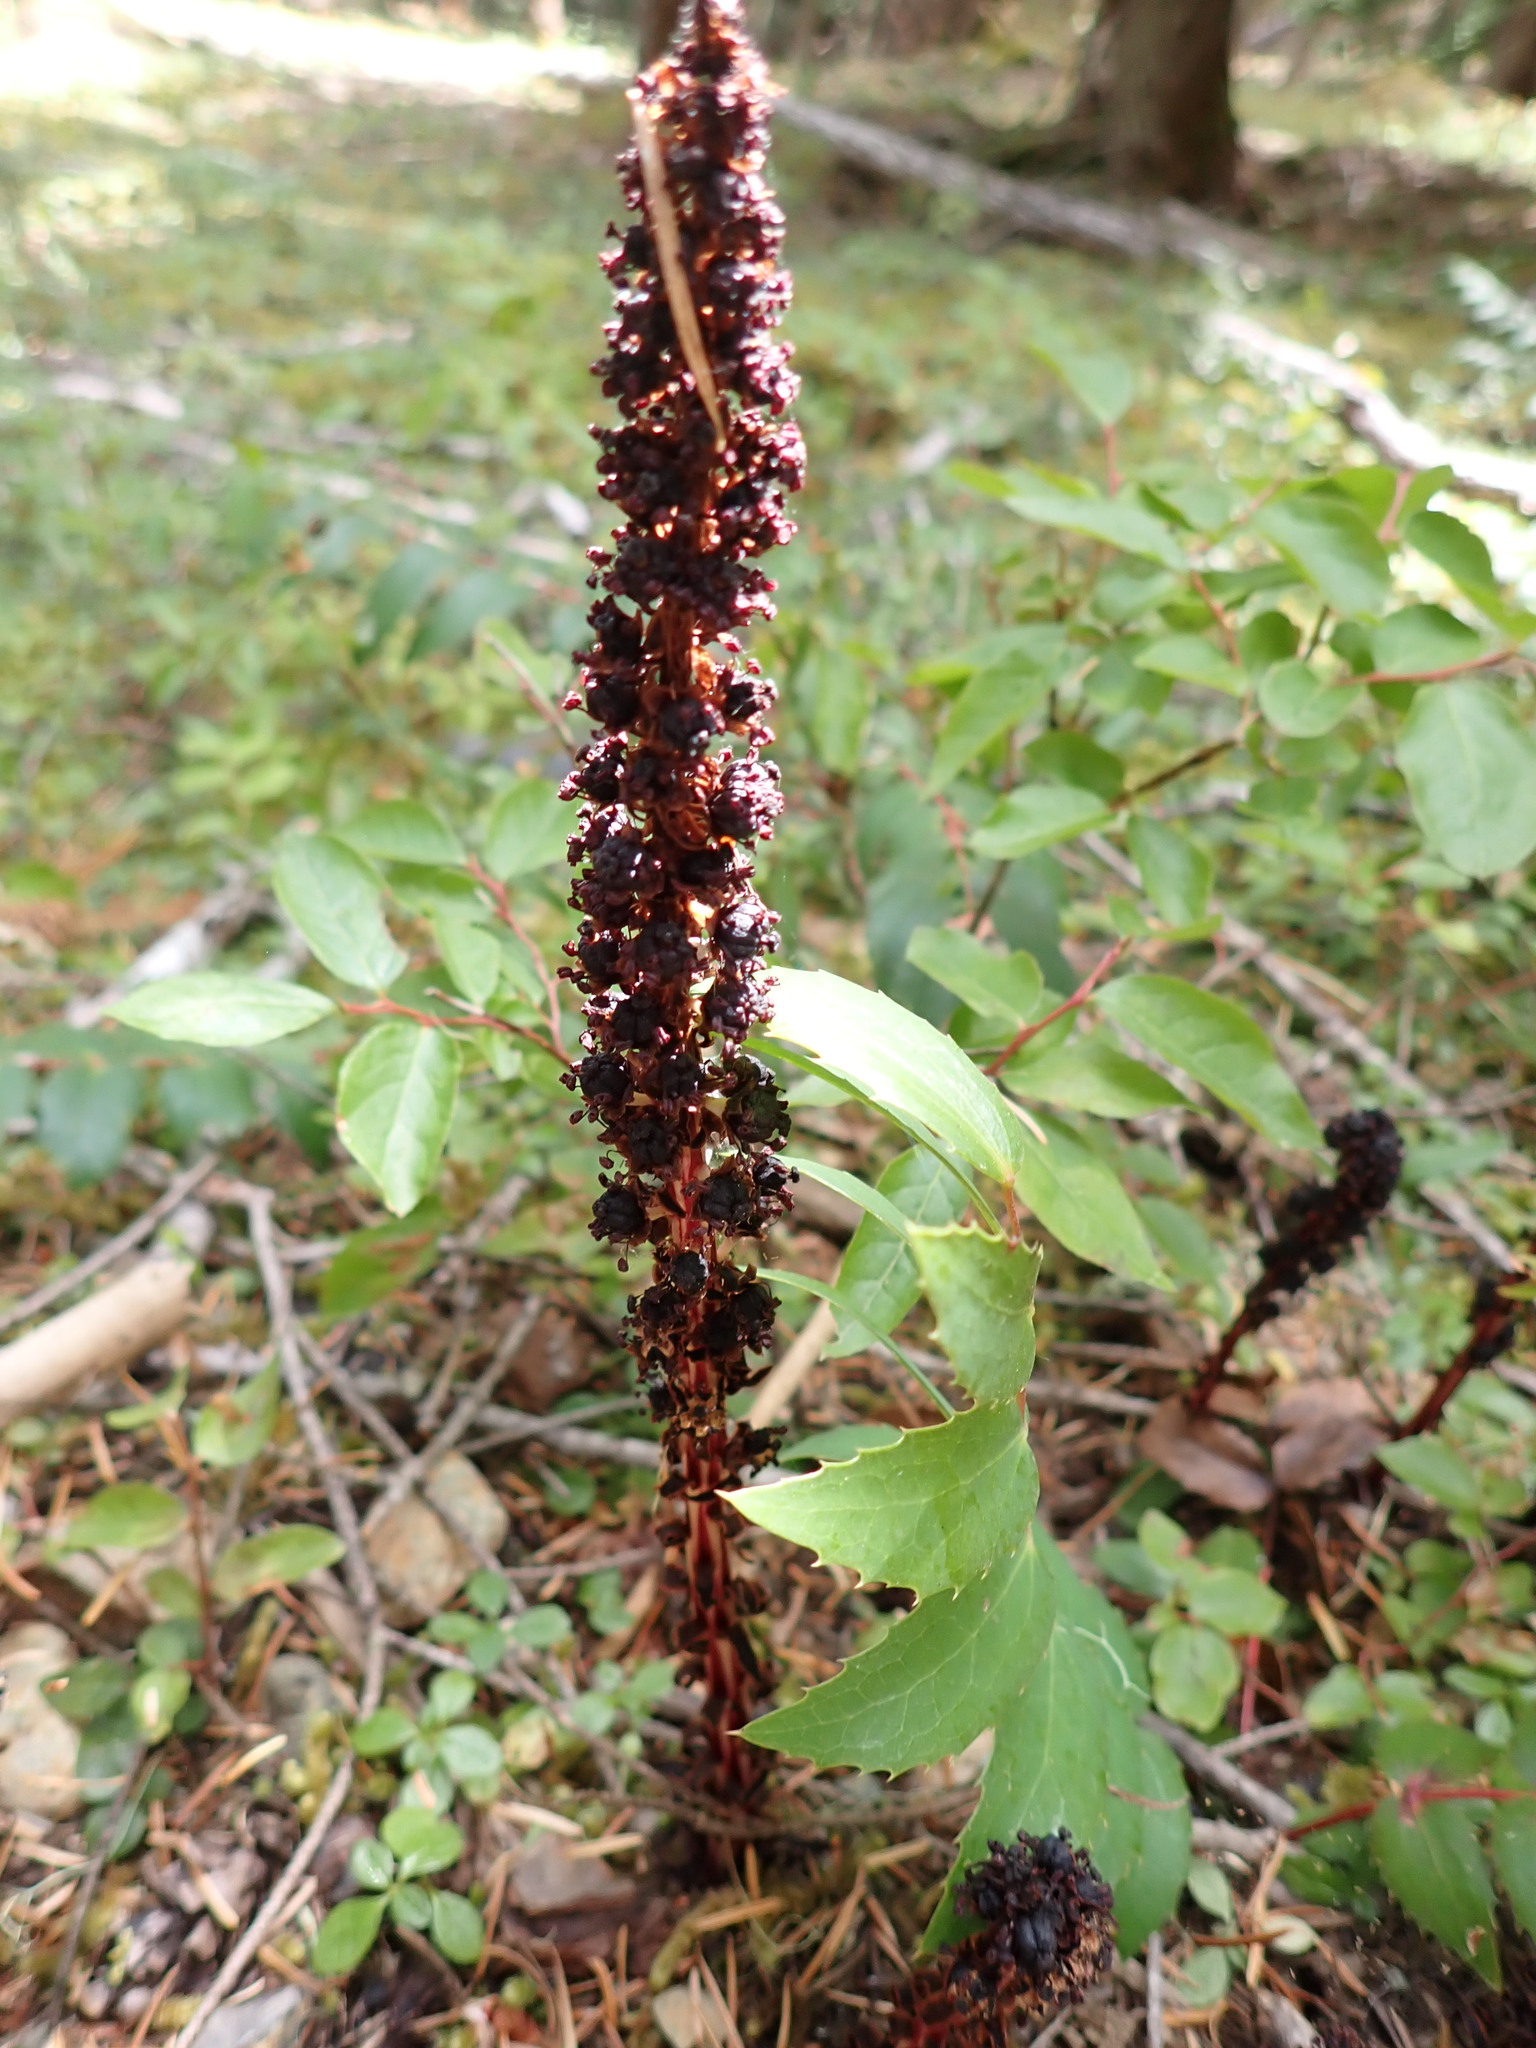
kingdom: Plantae
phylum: Tracheophyta
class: Magnoliopsida
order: Ericales
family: Ericaceae
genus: Allotropa
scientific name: Allotropa virgata
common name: Candy-striped allotropa
